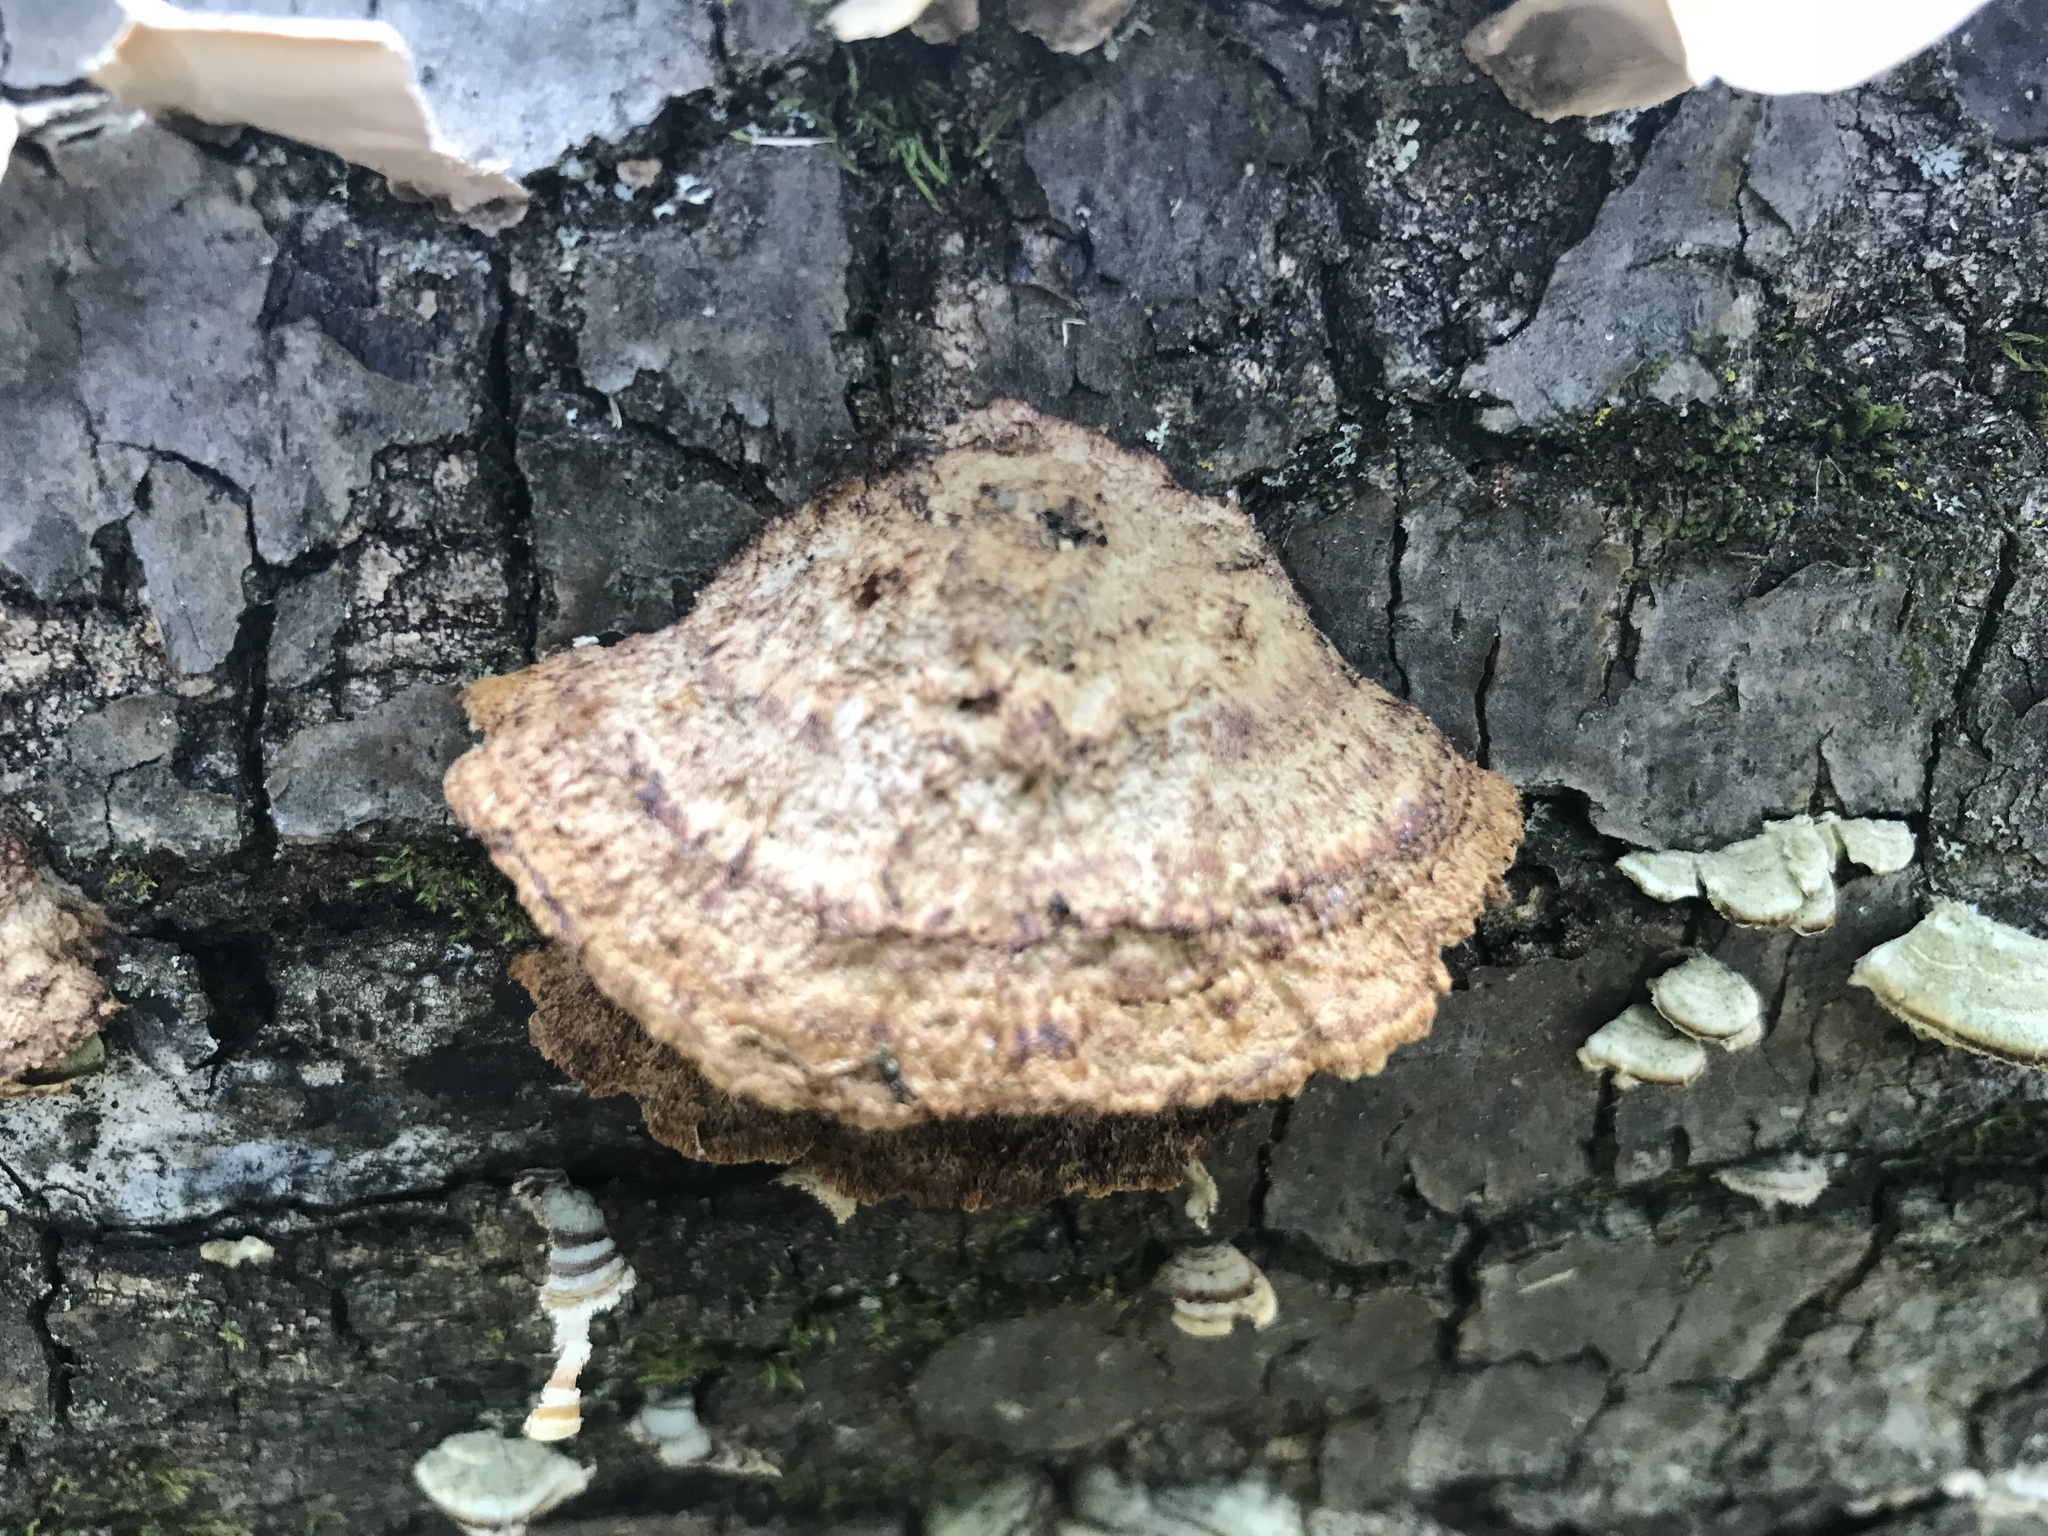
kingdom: Fungi
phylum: Basidiomycota
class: Agaricomycetes
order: Hymenochaetales
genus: Trichaptum
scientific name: Trichaptum biforme
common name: Violet-toothed polypore
